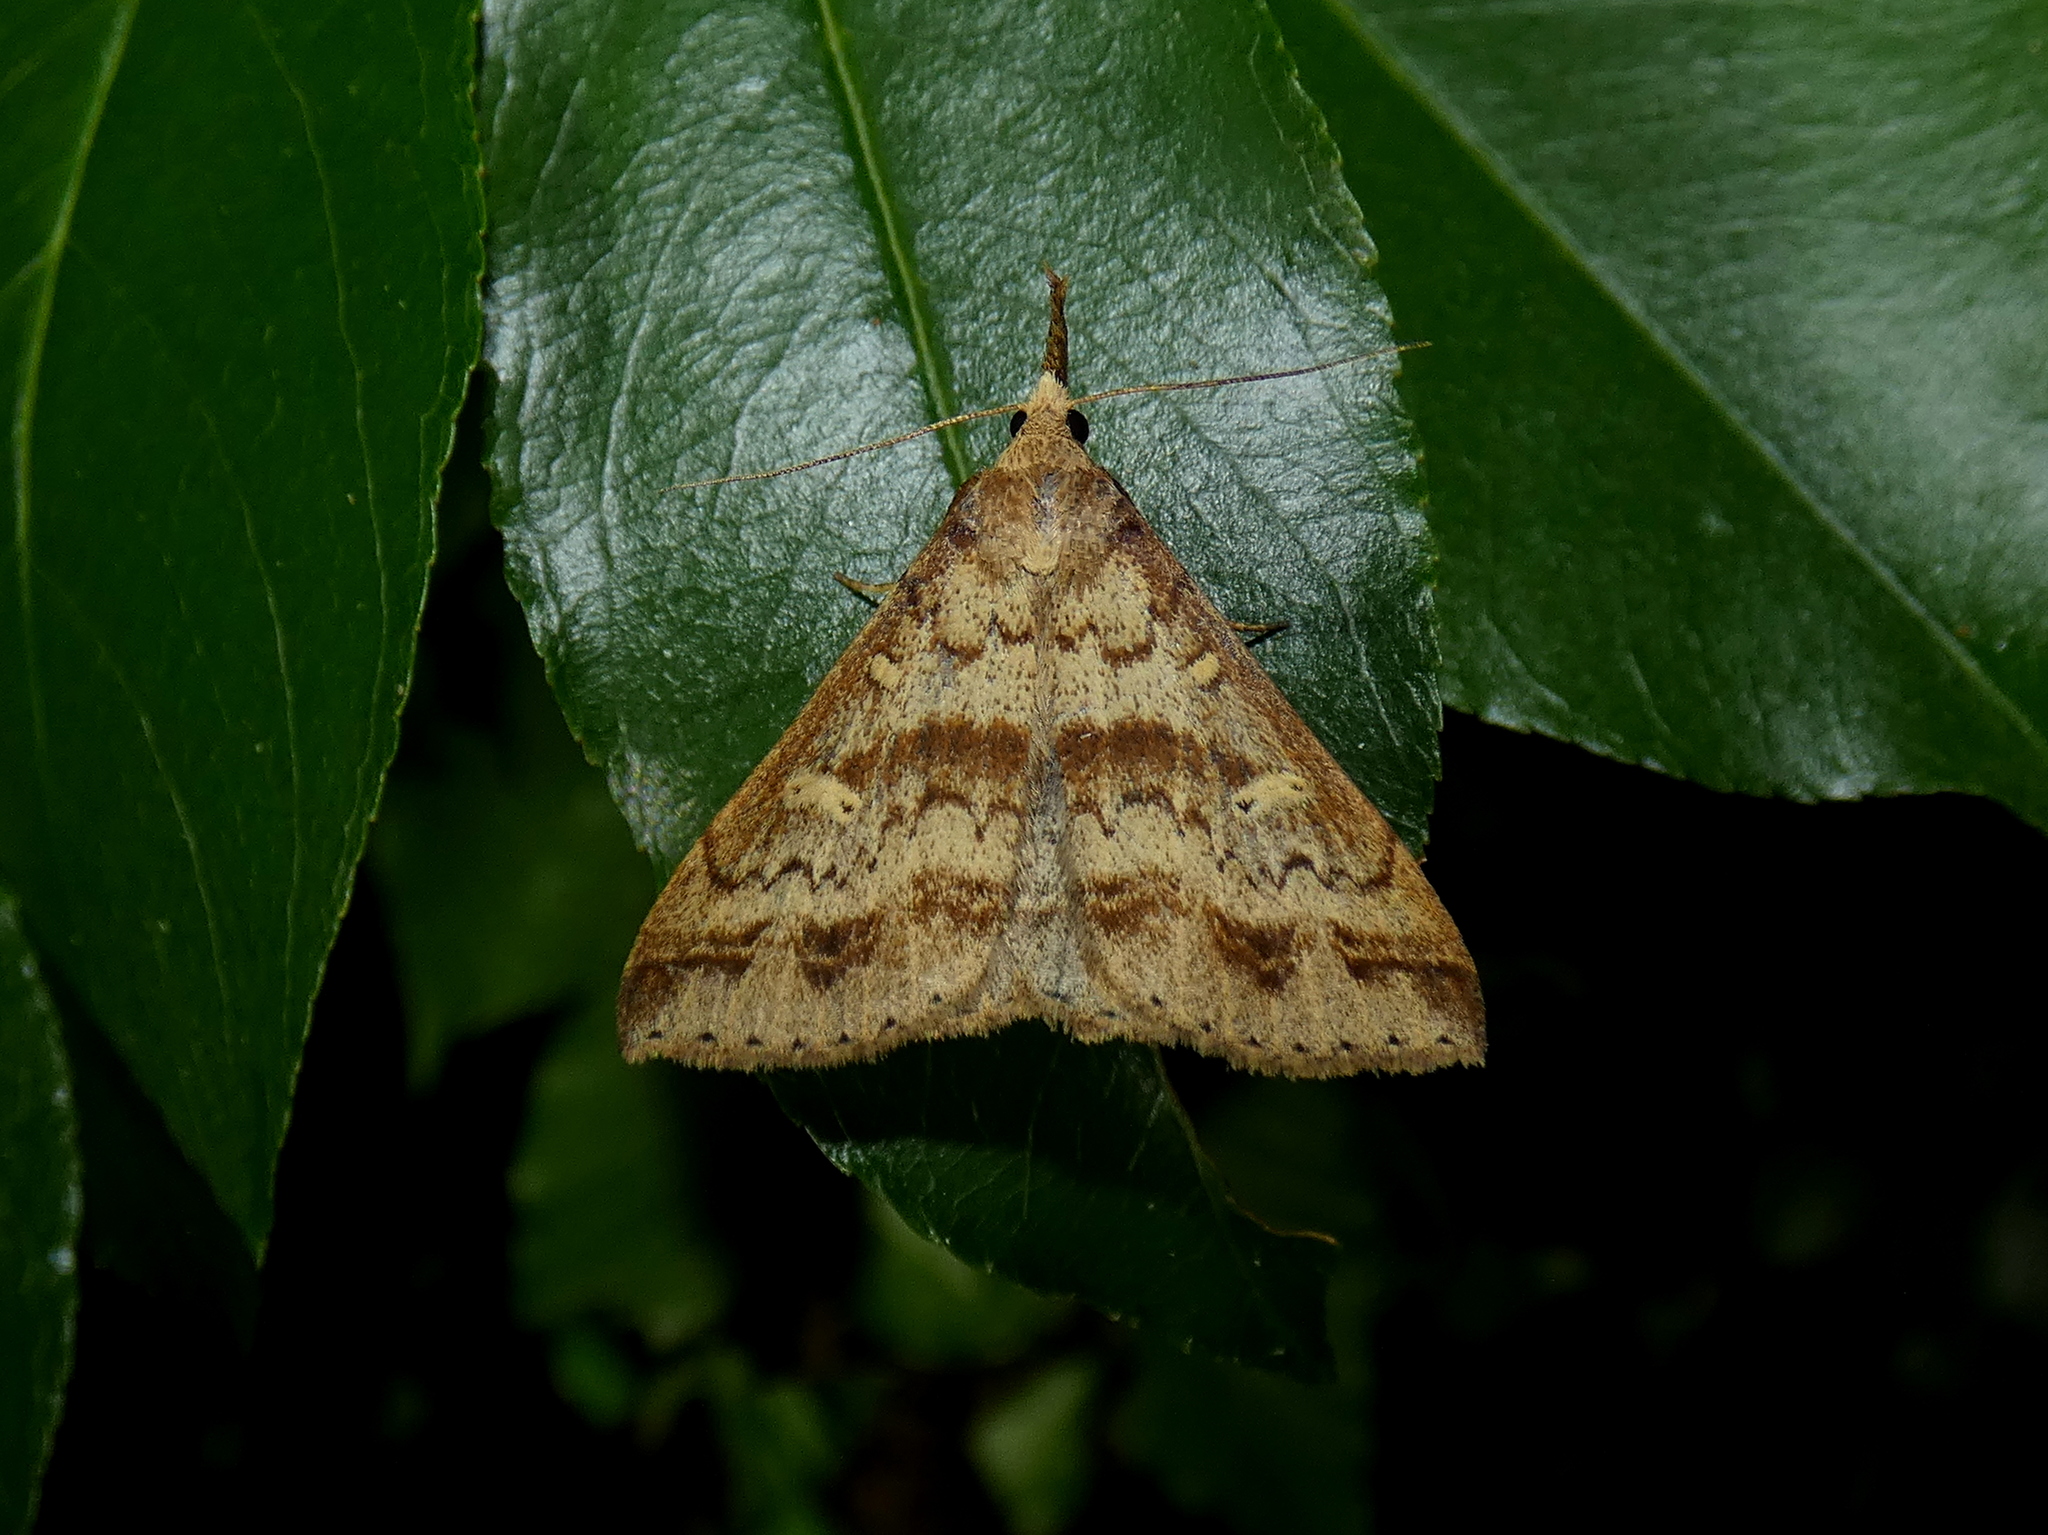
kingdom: Animalia
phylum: Arthropoda
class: Insecta
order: Lepidoptera
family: Erebidae
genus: Renia
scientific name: Renia discoloralis
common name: Discolored renia moth
